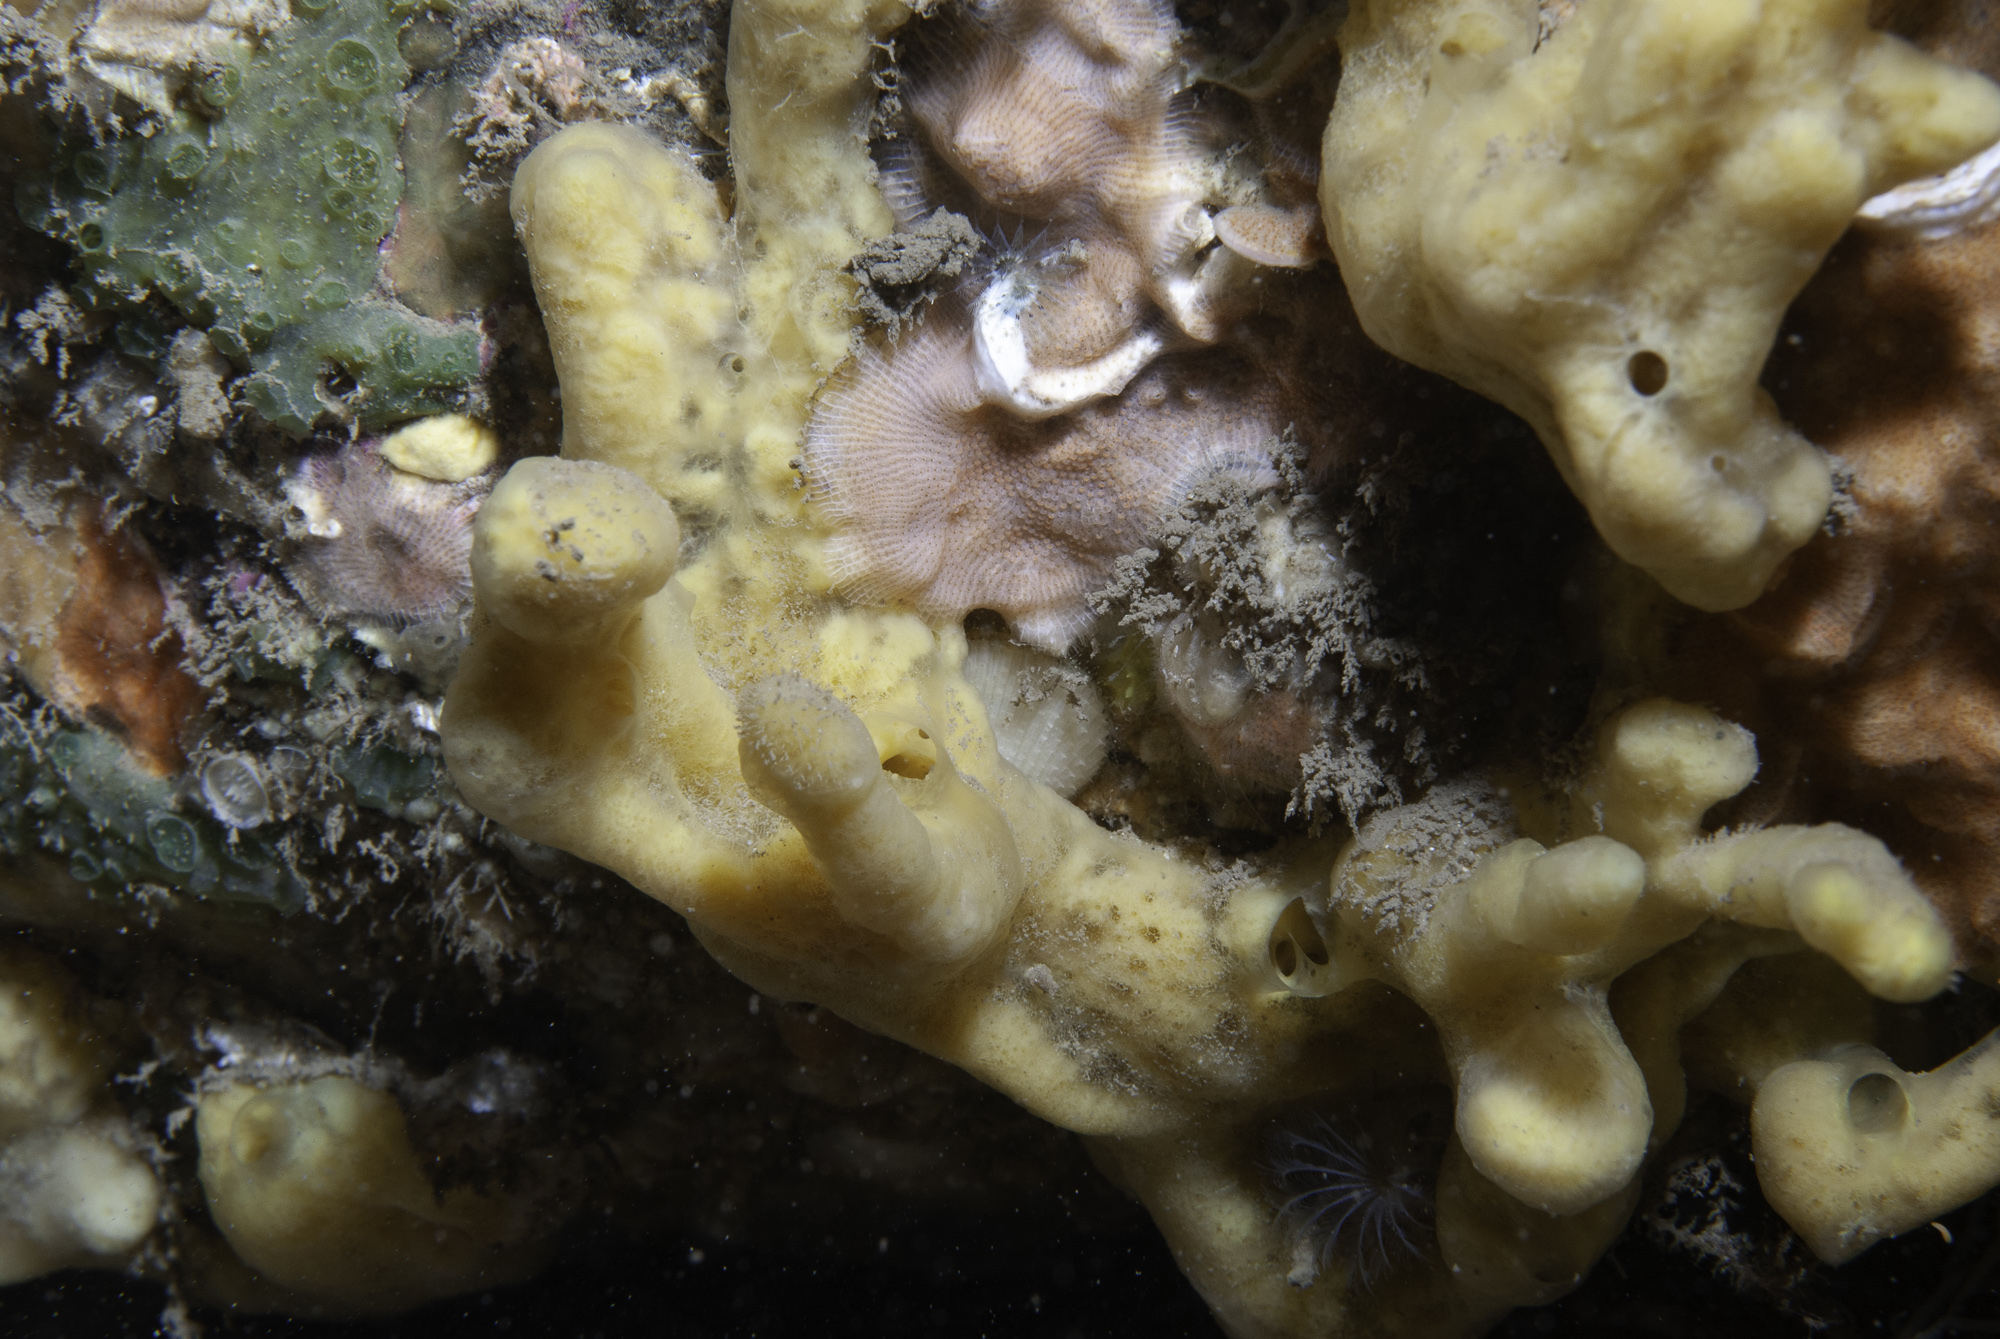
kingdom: Animalia
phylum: Porifera
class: Demospongiae
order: Poecilosclerida
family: Acarnidae
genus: Iophon
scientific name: Iophon nigricans
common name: Yellow-fingered horny sponge
